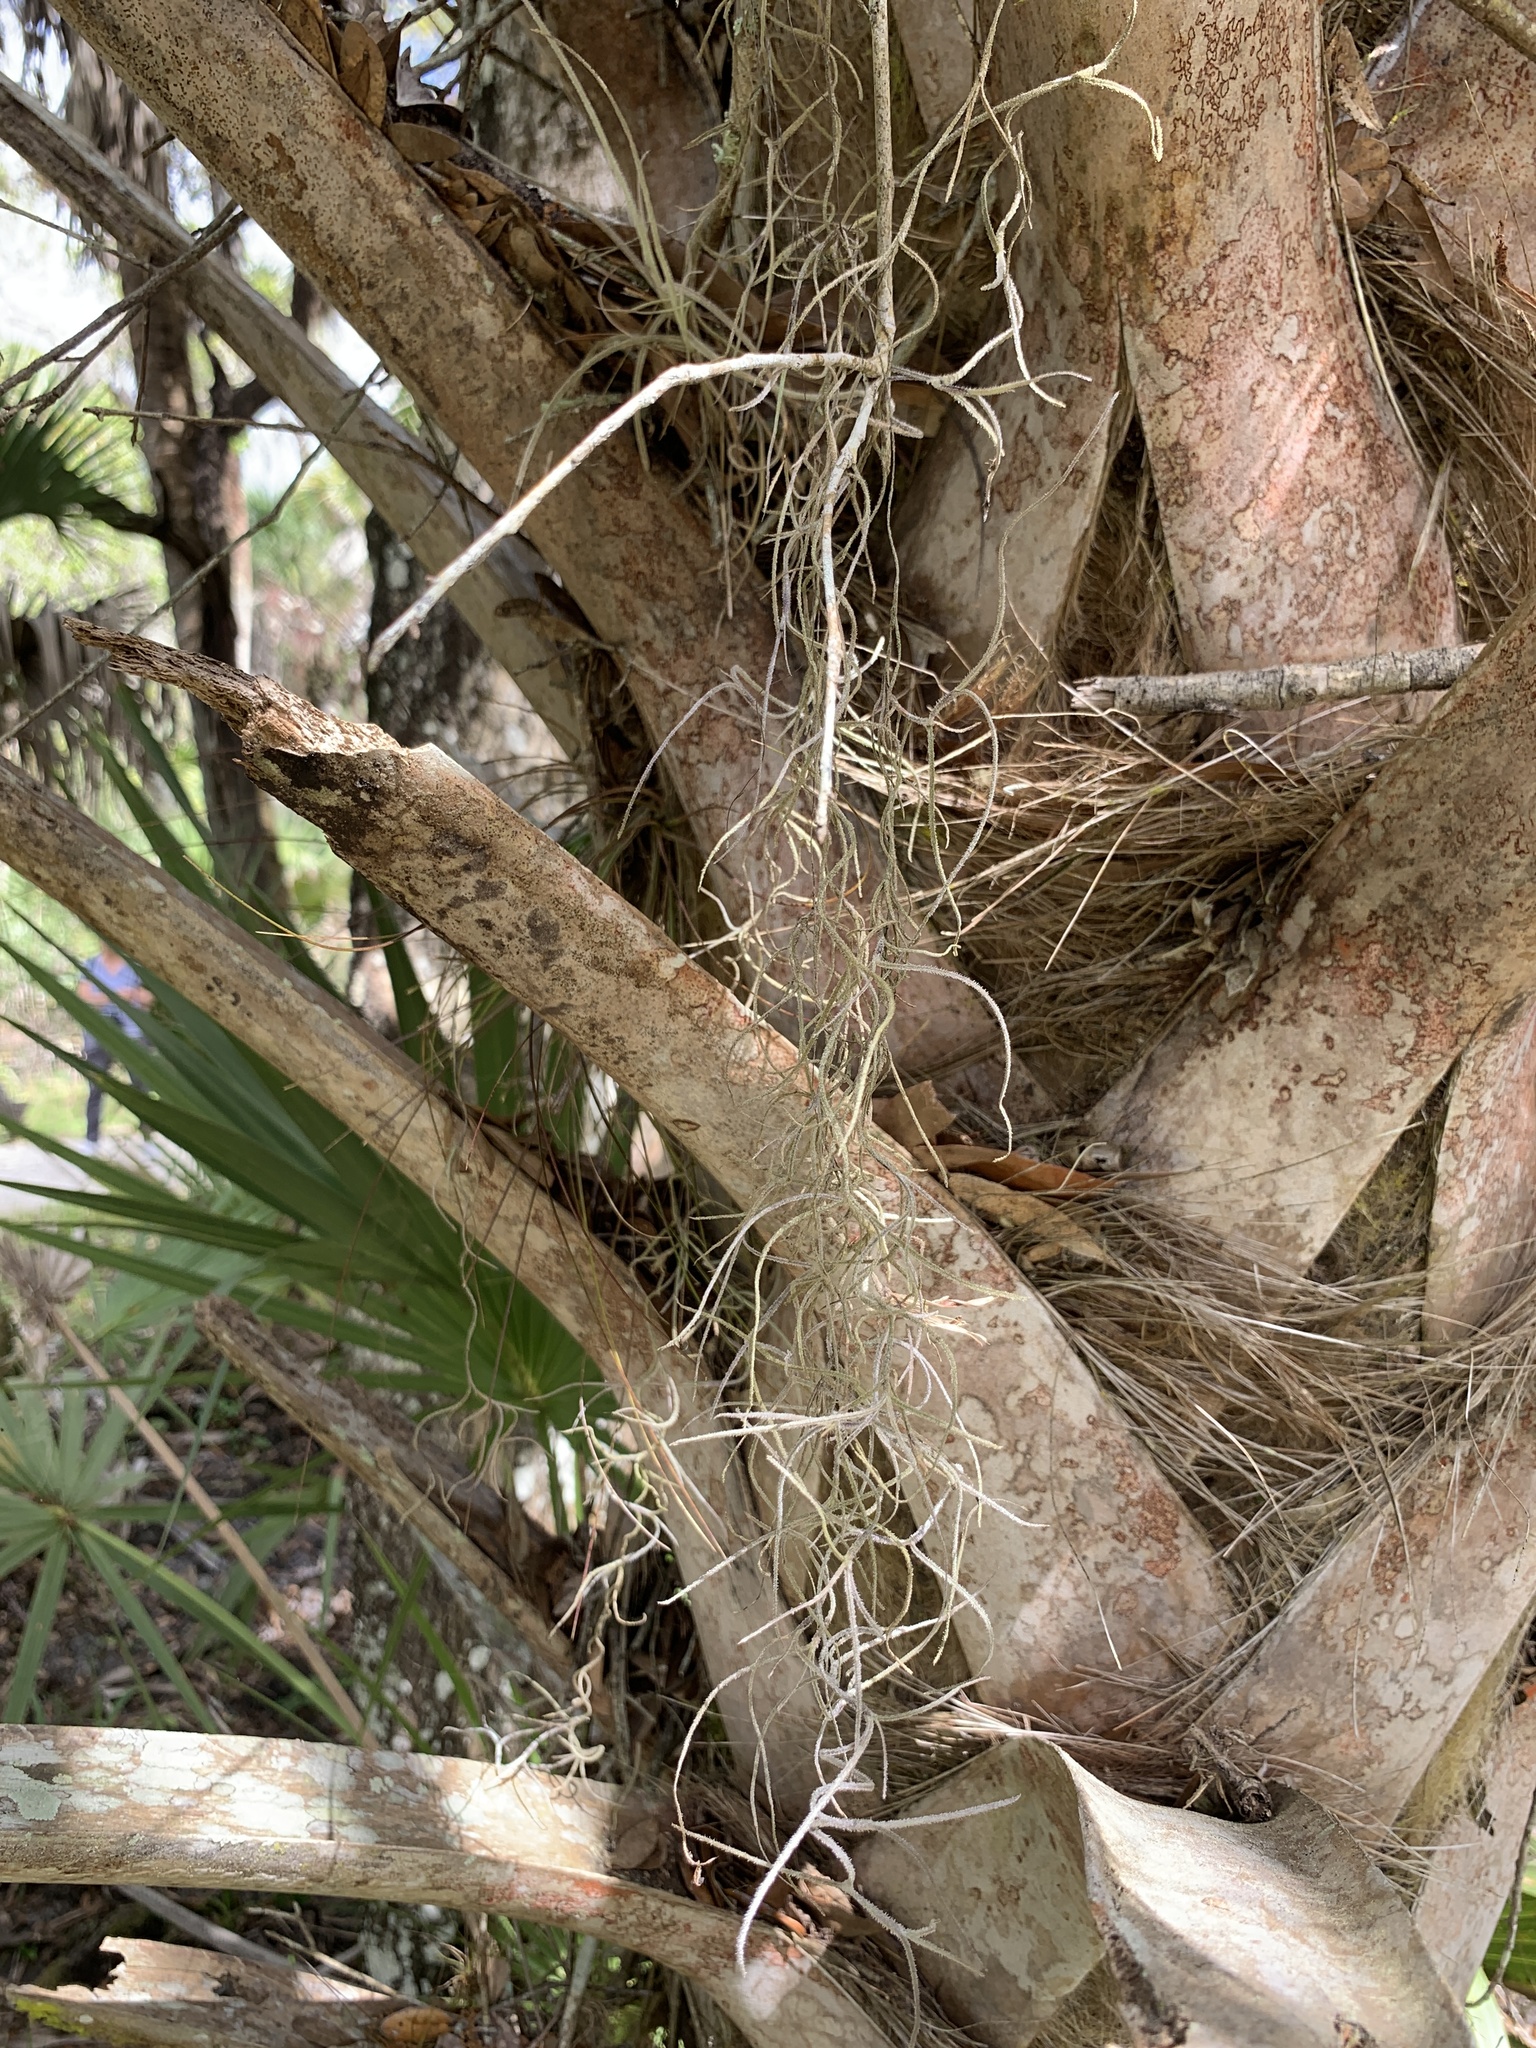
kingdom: Plantae
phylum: Tracheophyta
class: Liliopsida
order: Poales
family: Bromeliaceae
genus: Tillandsia
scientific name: Tillandsia usneoides
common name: Spanish moss
